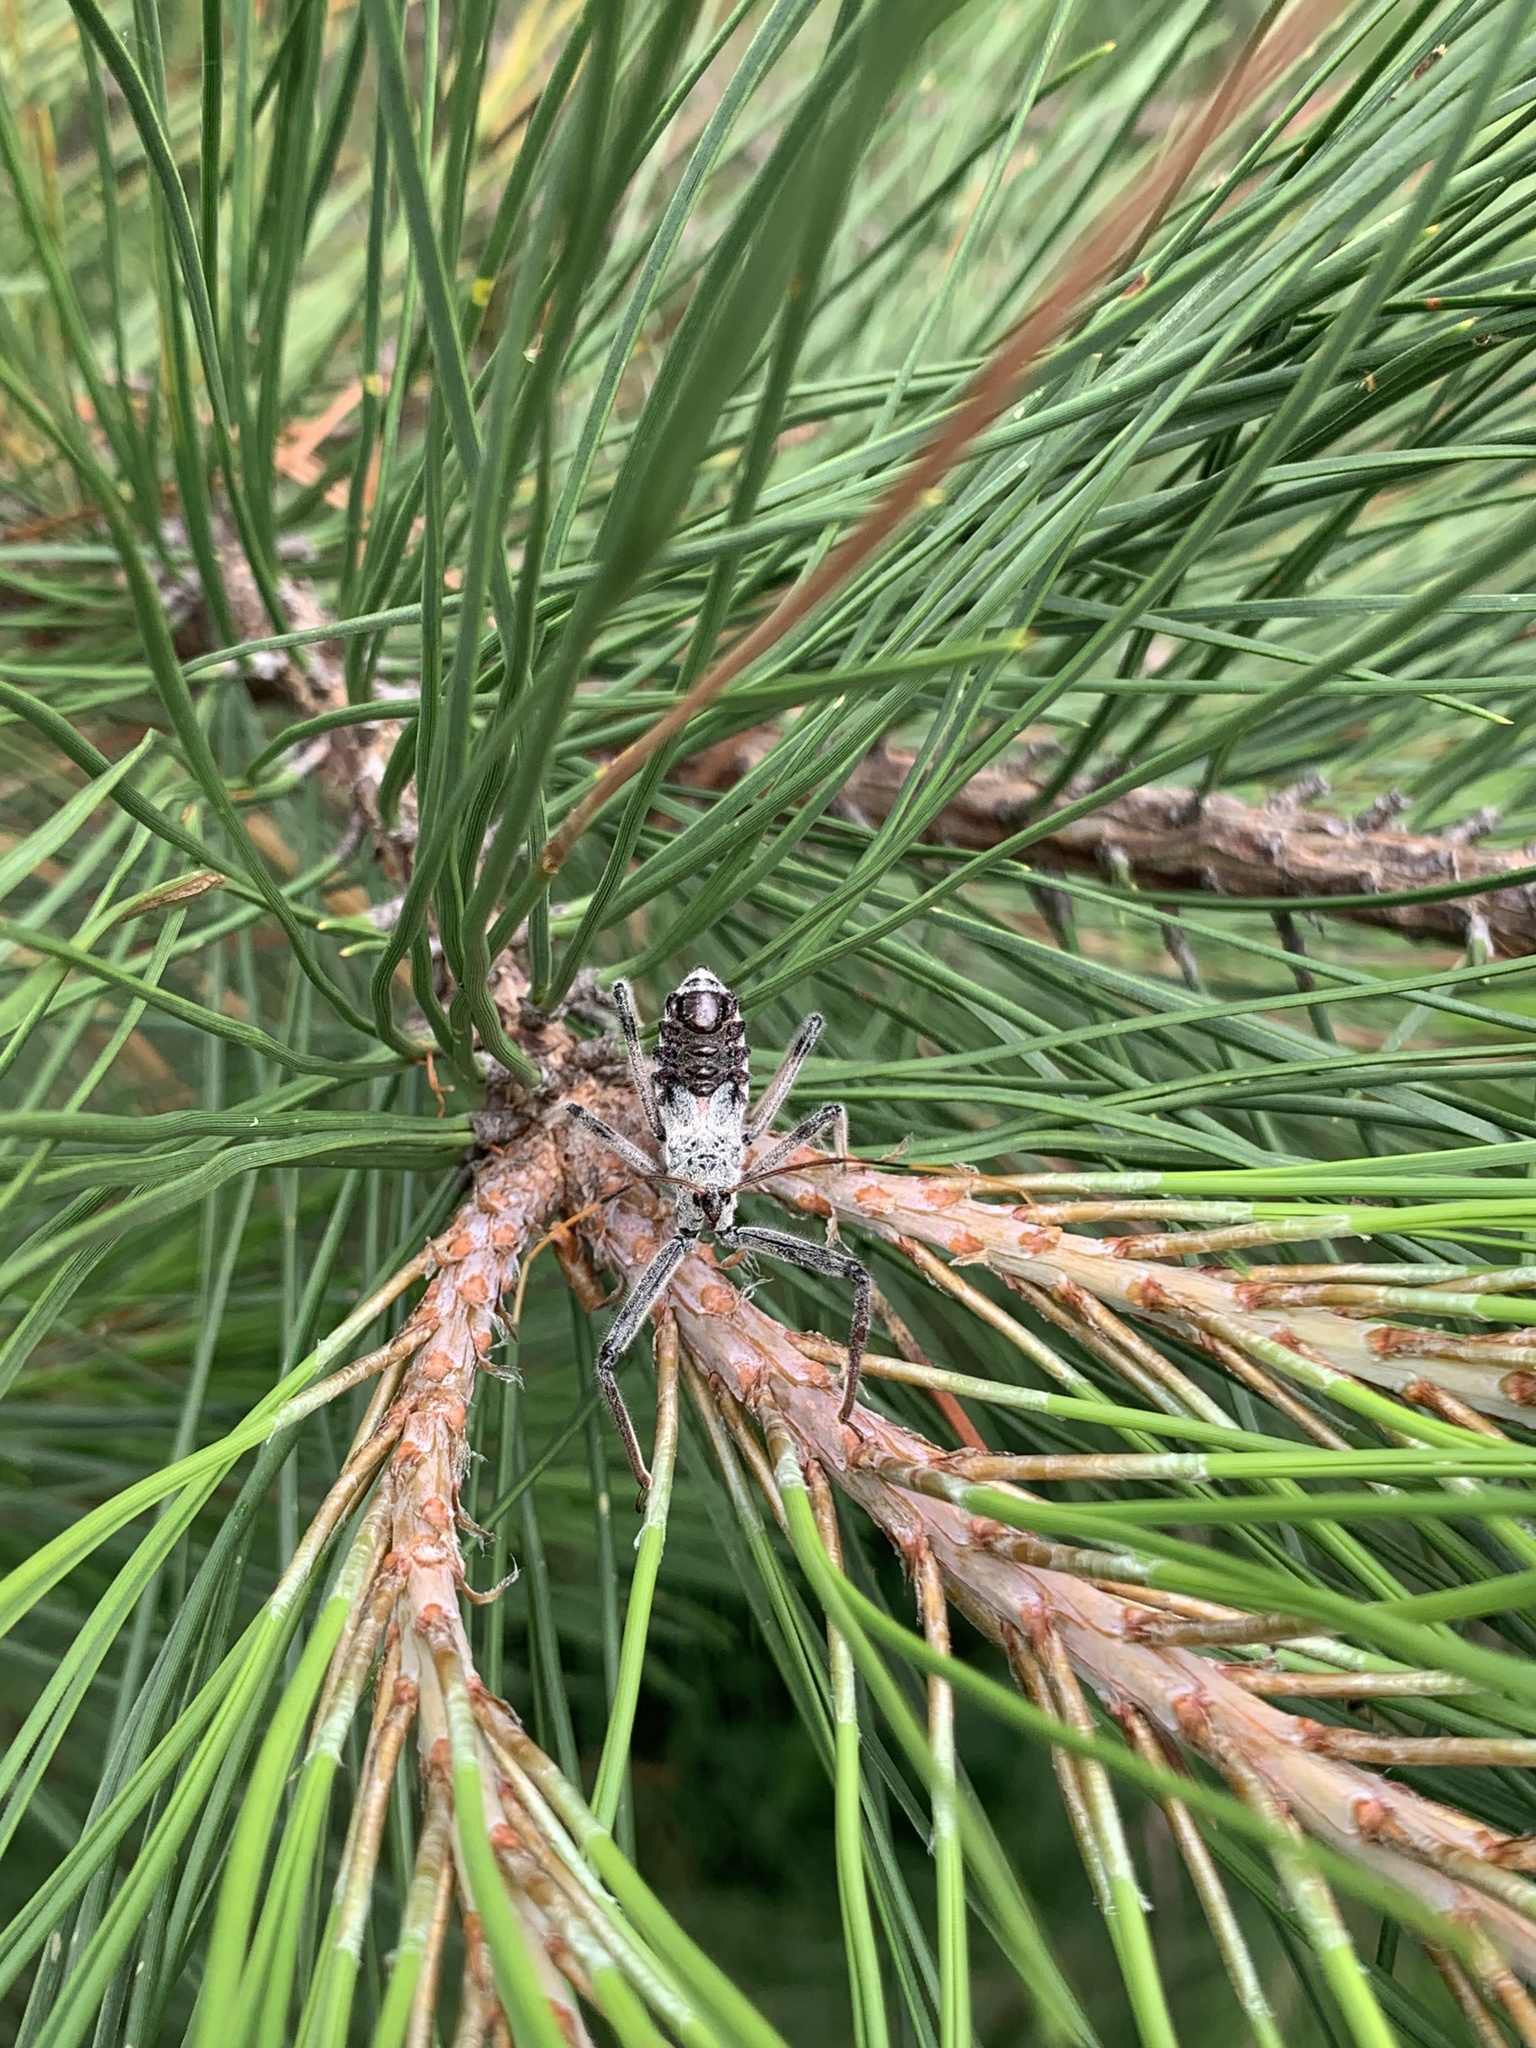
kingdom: Animalia
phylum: Arthropoda
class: Insecta
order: Hemiptera
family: Reduviidae
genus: Arilus
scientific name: Arilus cristatus
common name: North american wheel bug
